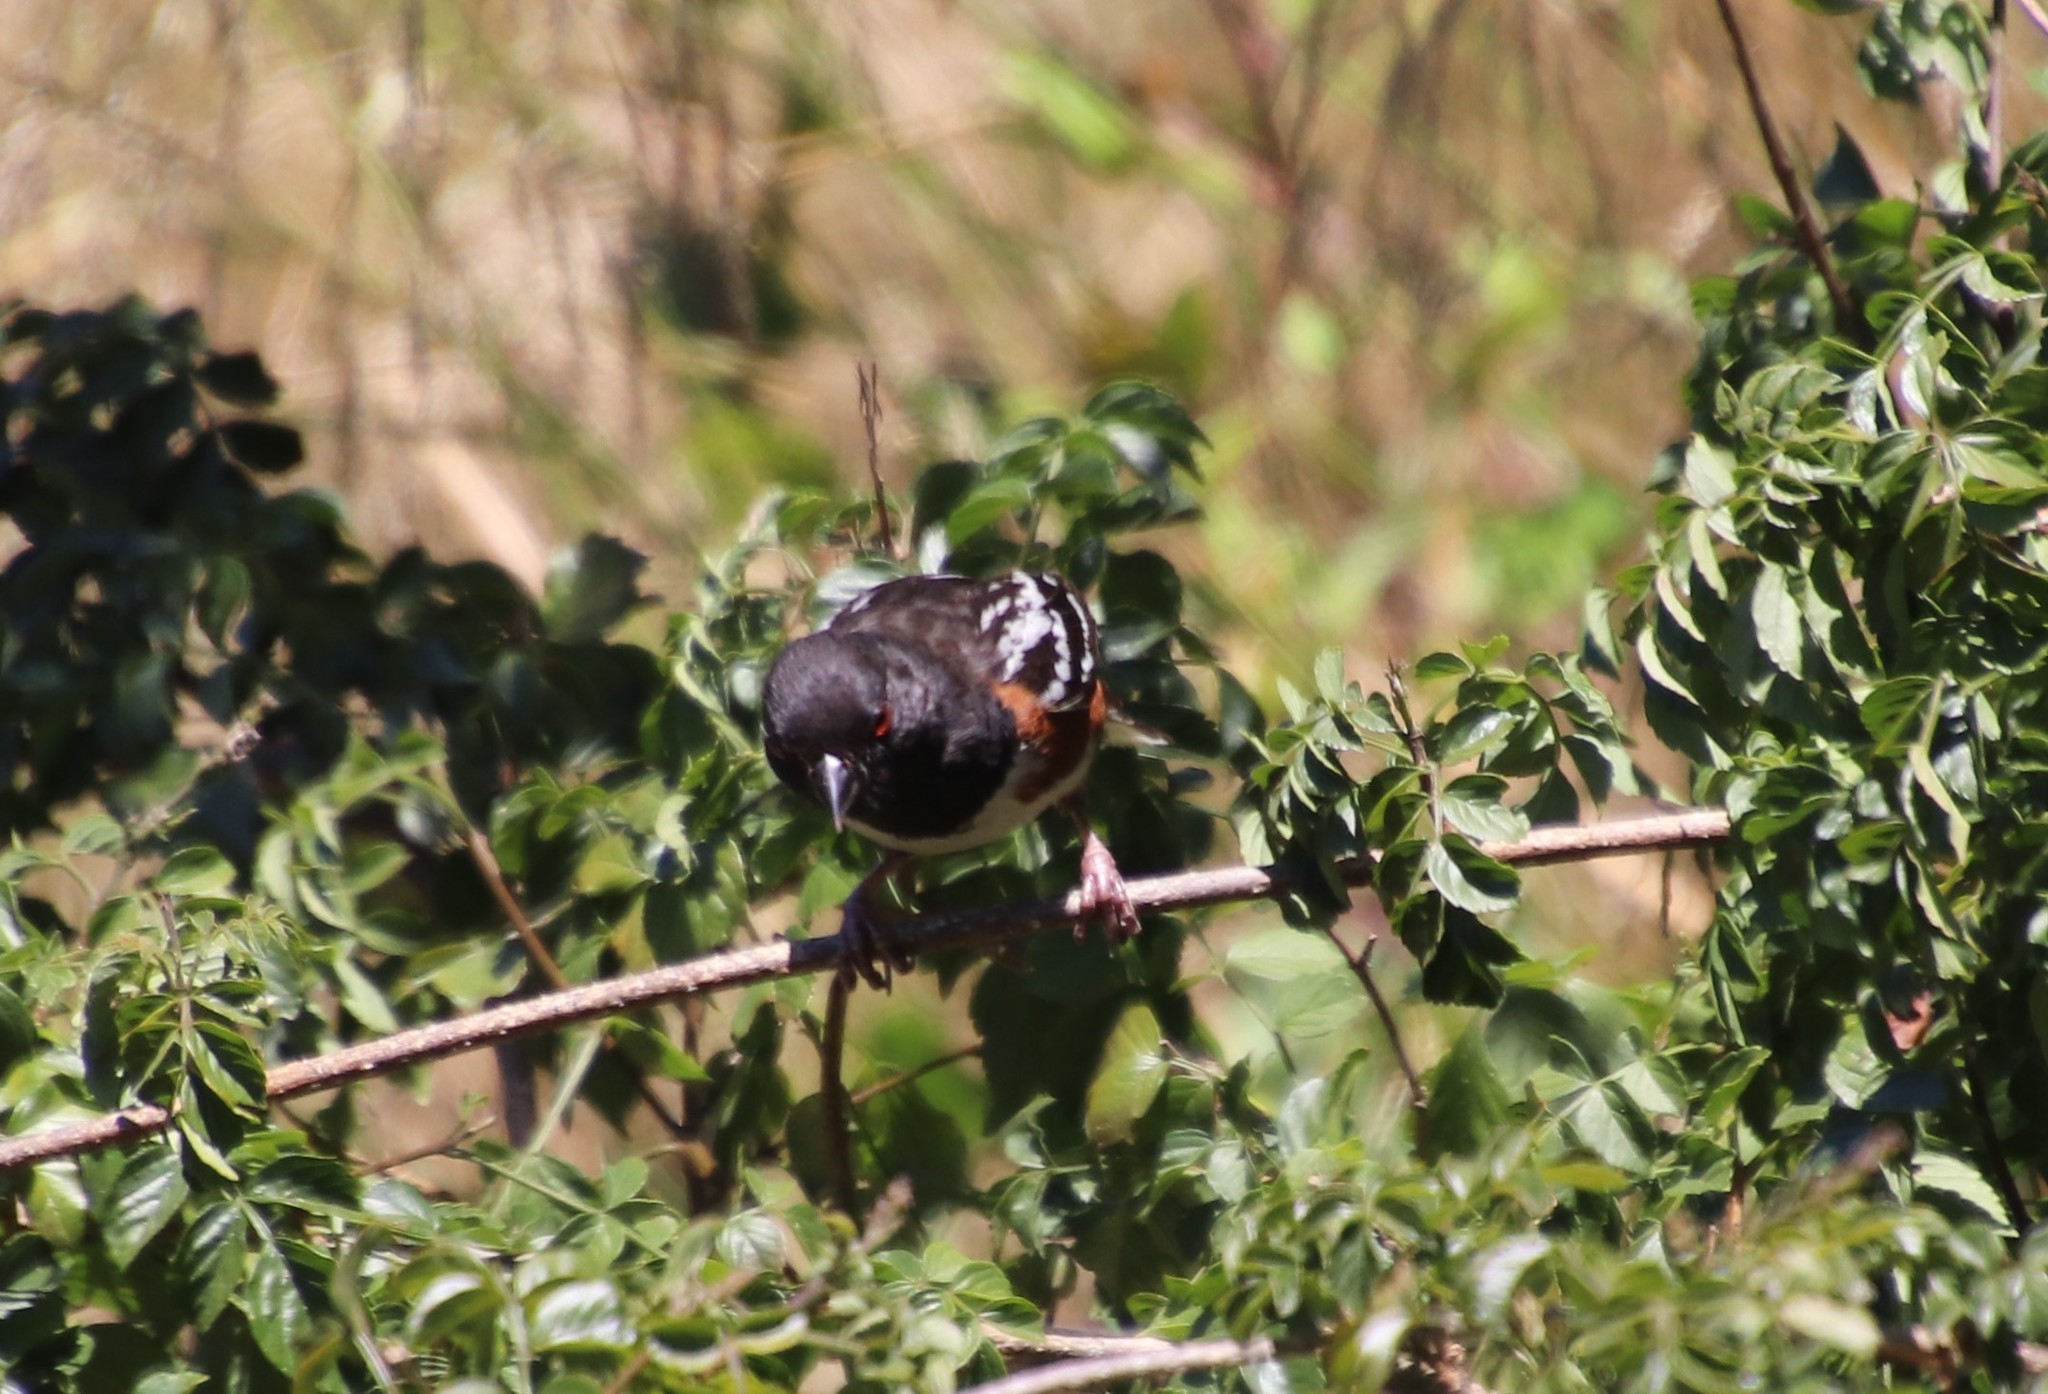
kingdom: Animalia
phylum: Chordata
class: Aves
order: Passeriformes
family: Passerellidae
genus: Pipilo
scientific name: Pipilo maculatus
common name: Spotted towhee
